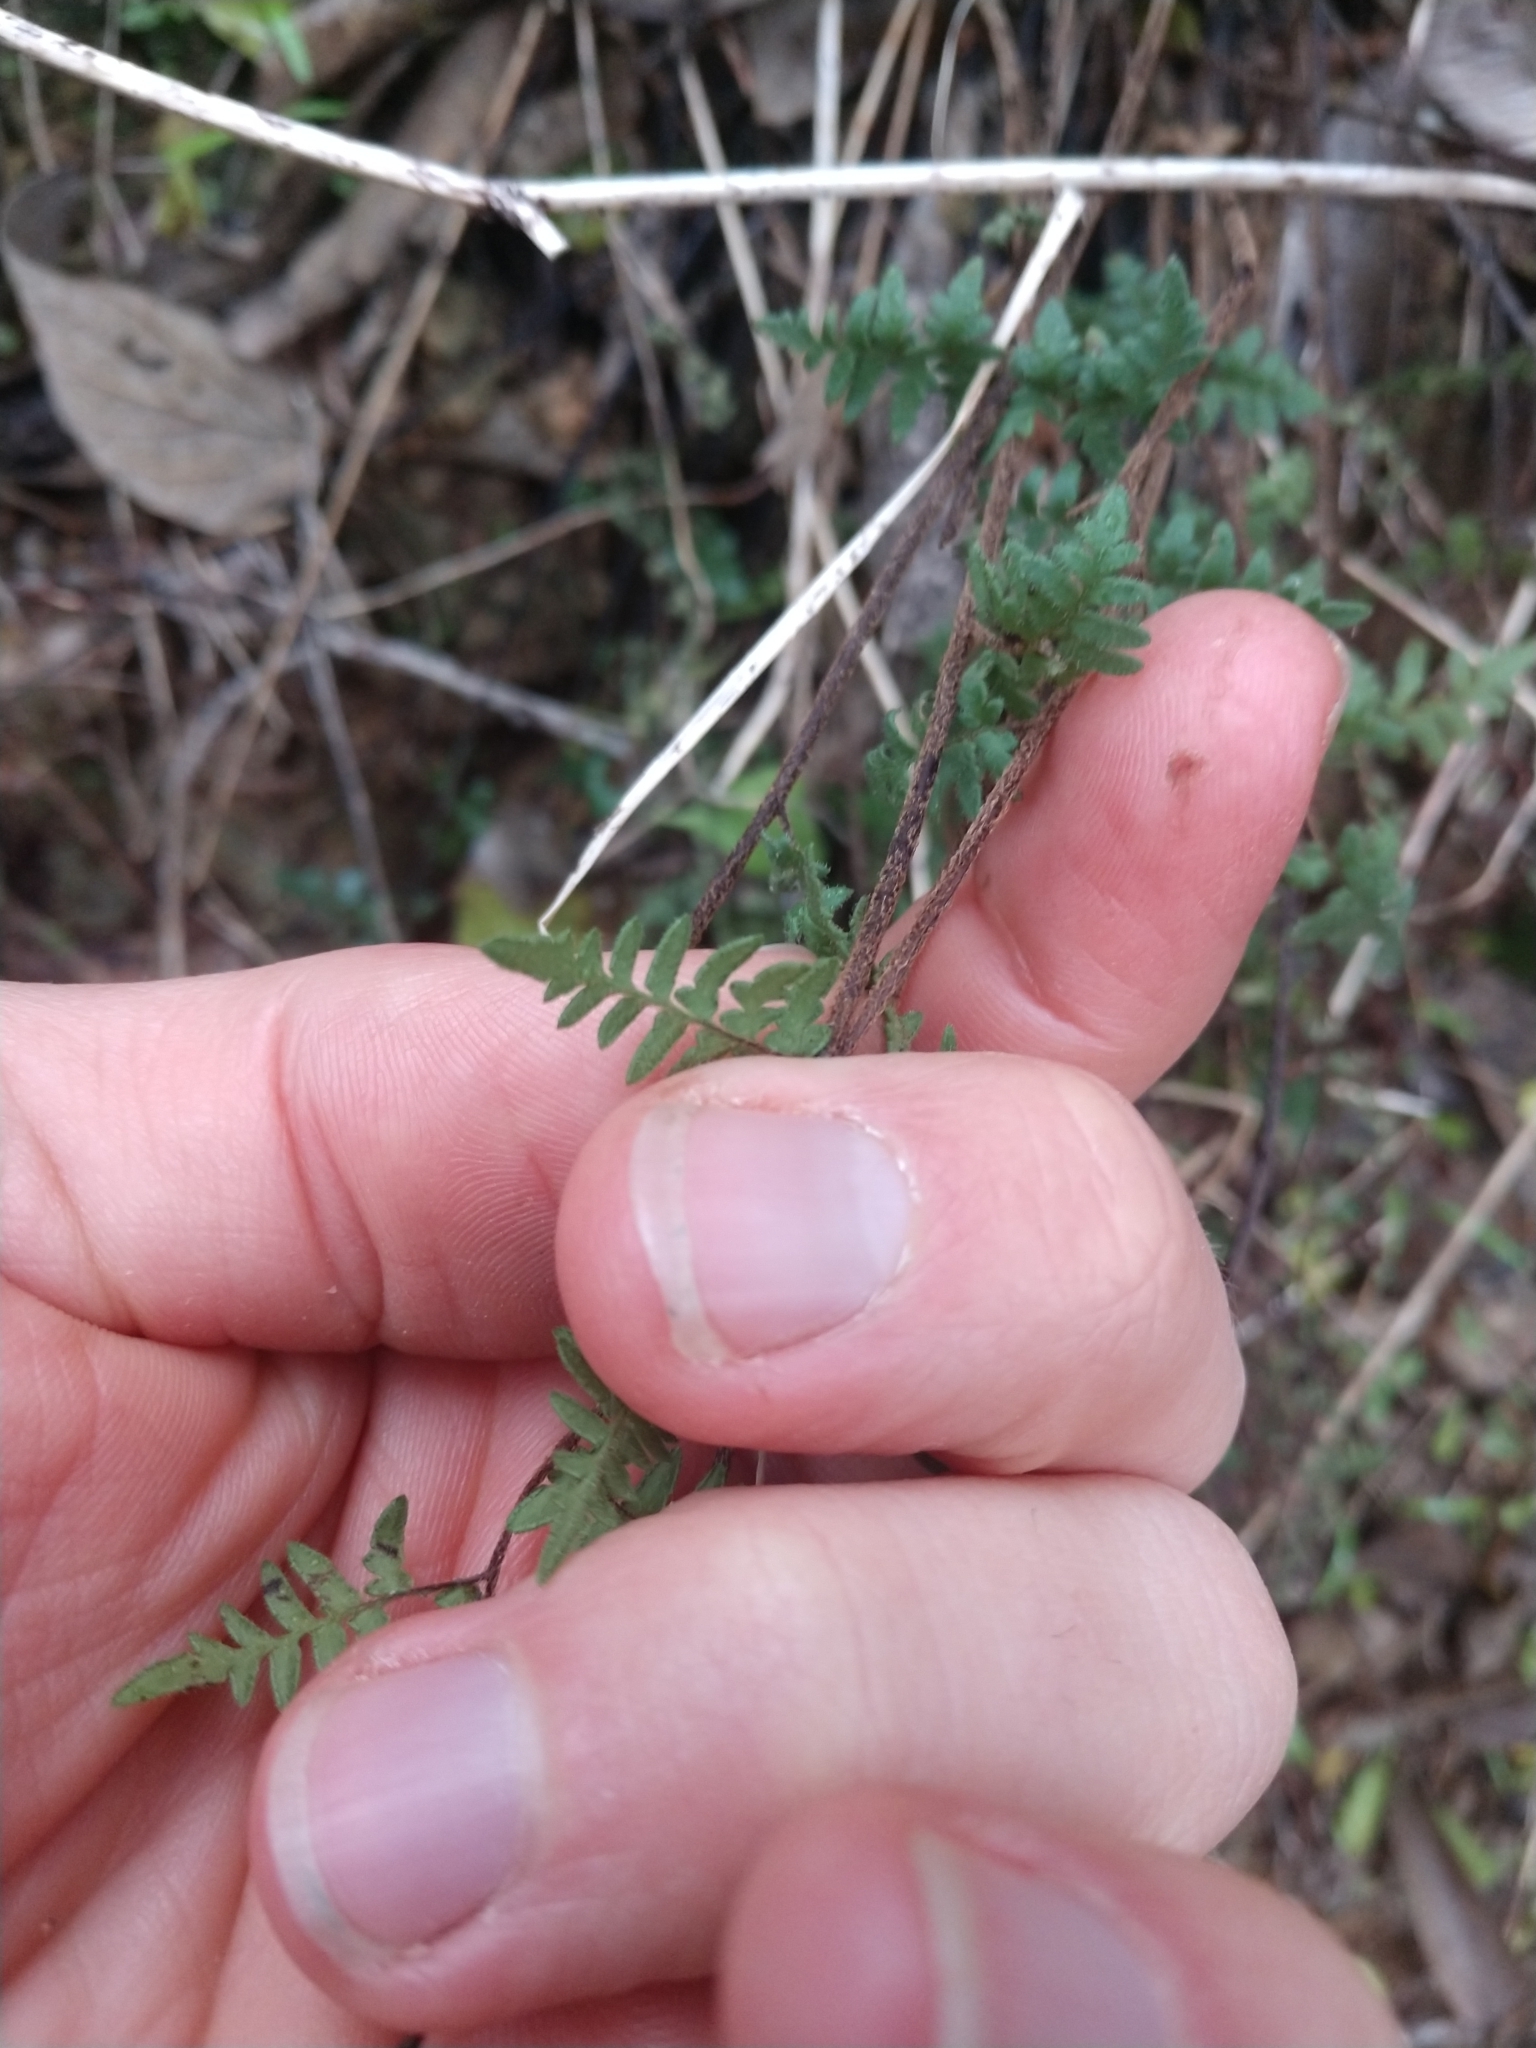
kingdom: Plantae
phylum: Tracheophyta
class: Polypodiopsida
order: Polypodiales
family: Pteridaceae
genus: Myriopteris
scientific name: Myriopteris alabamensis
